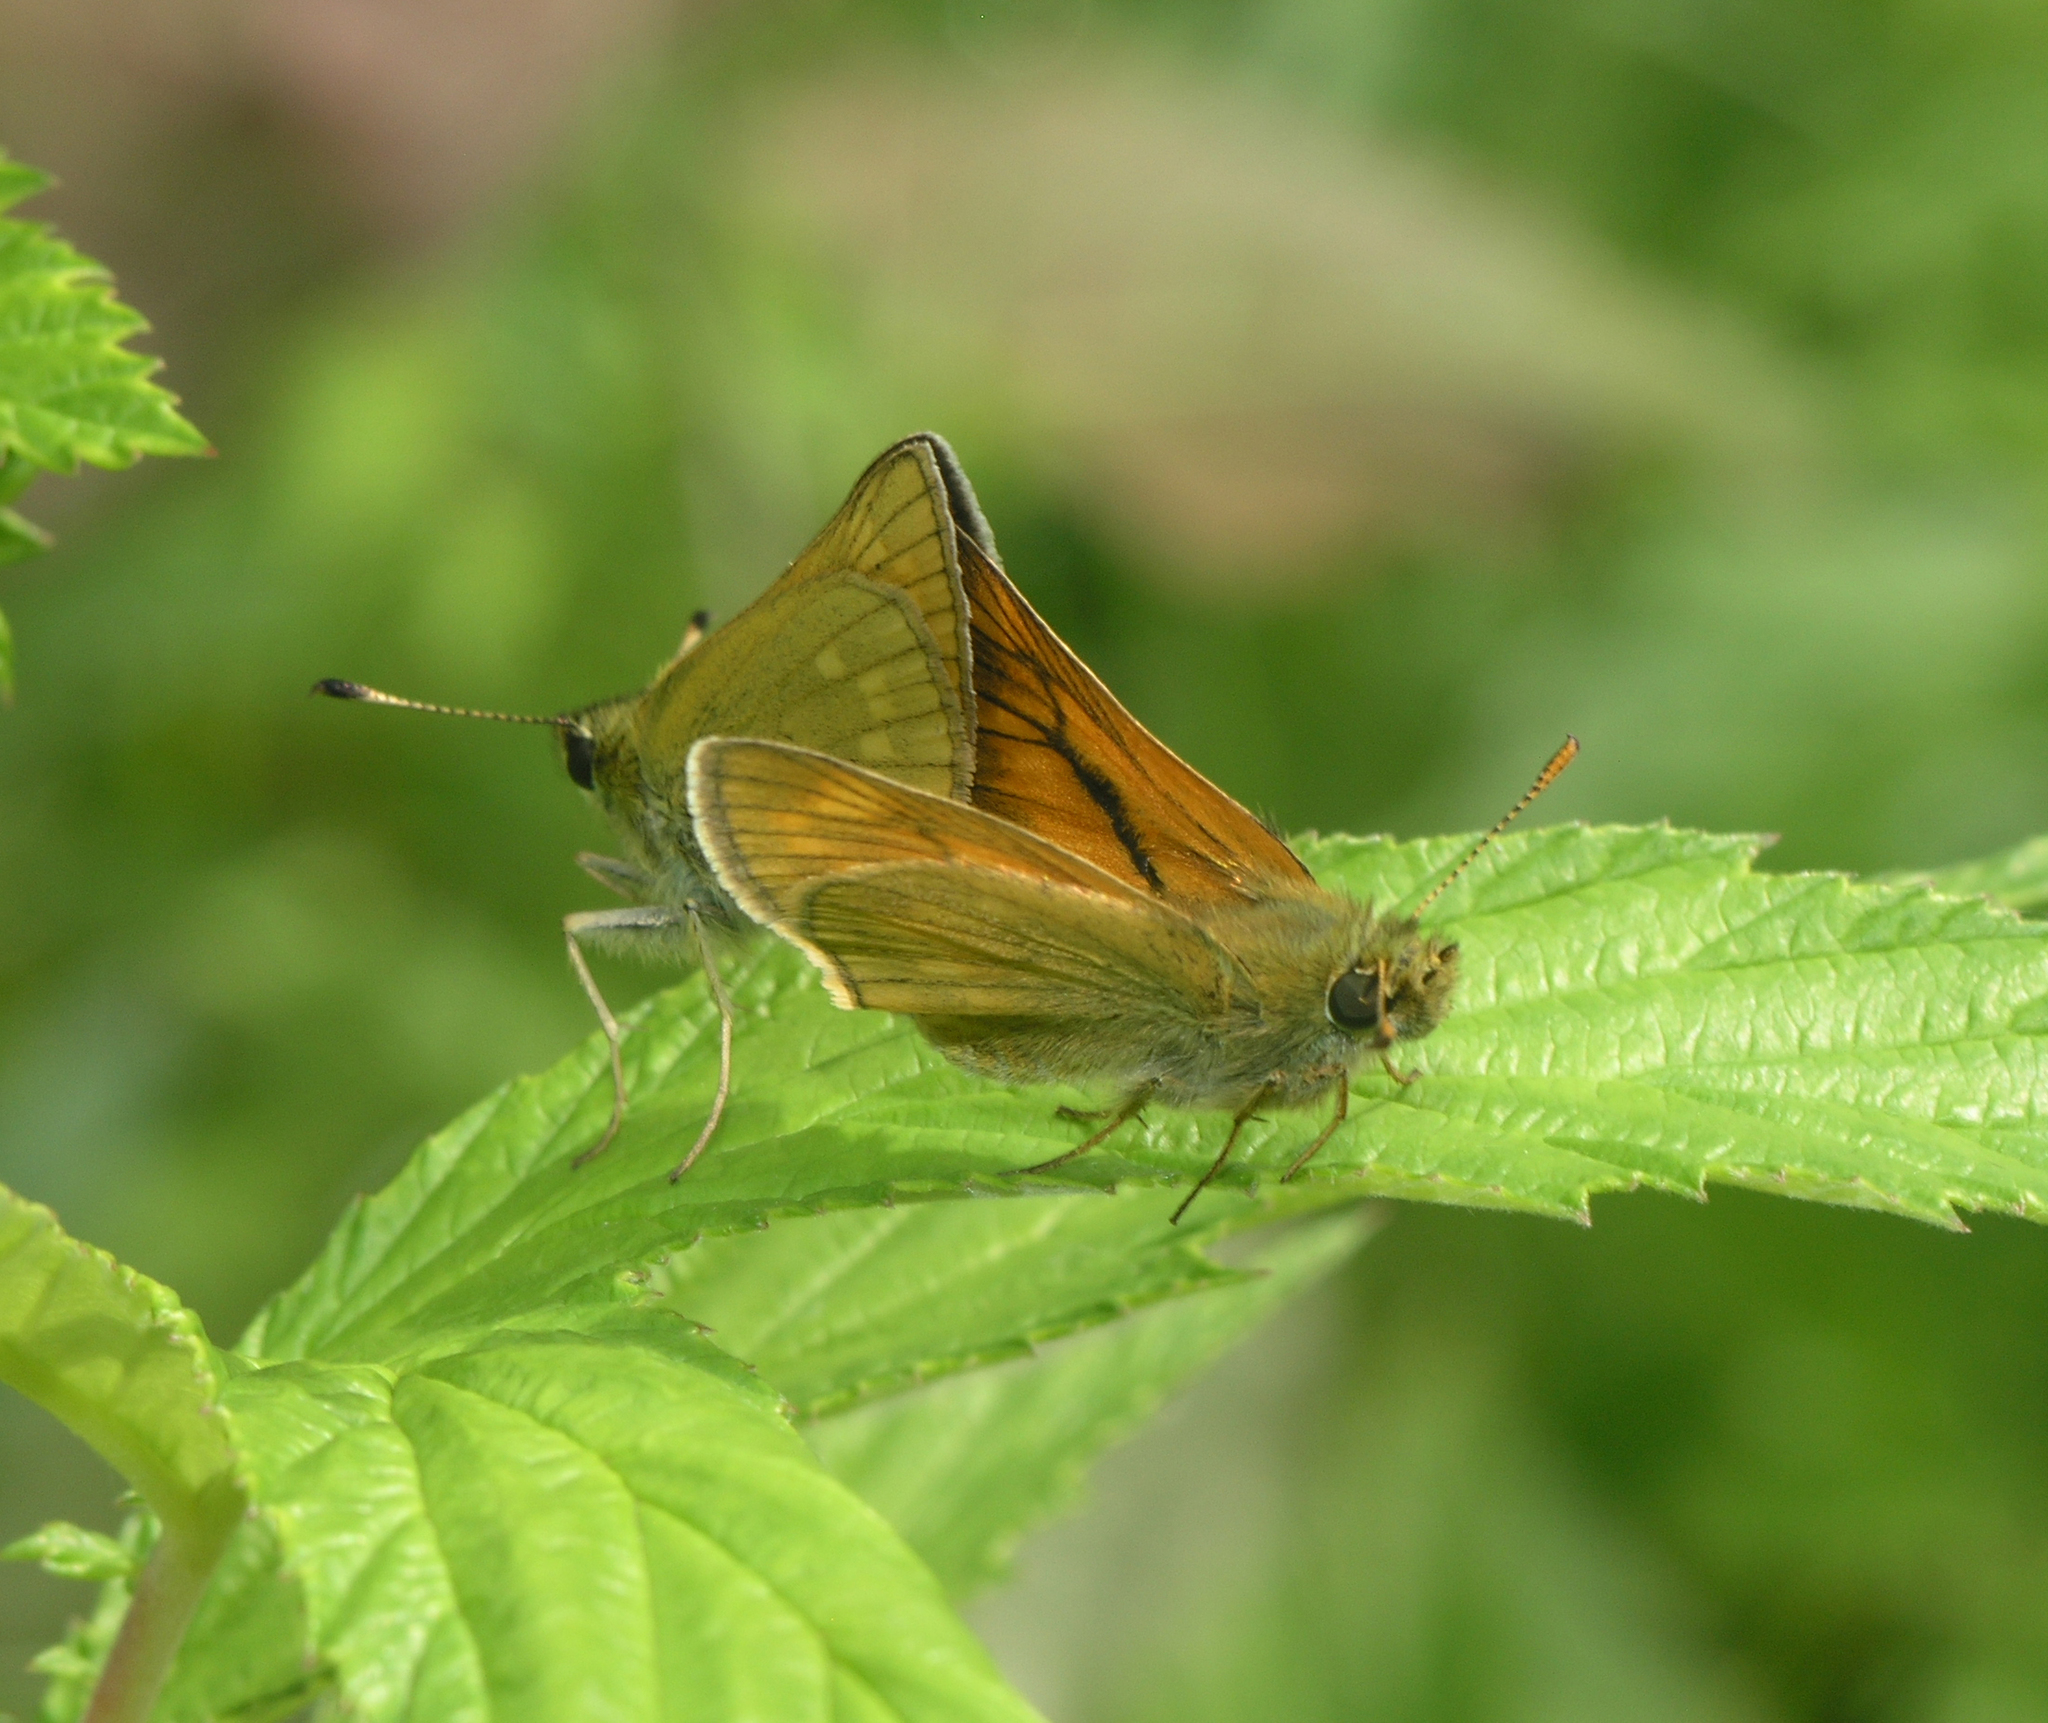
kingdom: Animalia
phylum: Arthropoda
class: Insecta
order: Lepidoptera
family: Hesperiidae
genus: Ochlodes
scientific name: Ochlodes venata
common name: Large skipper
